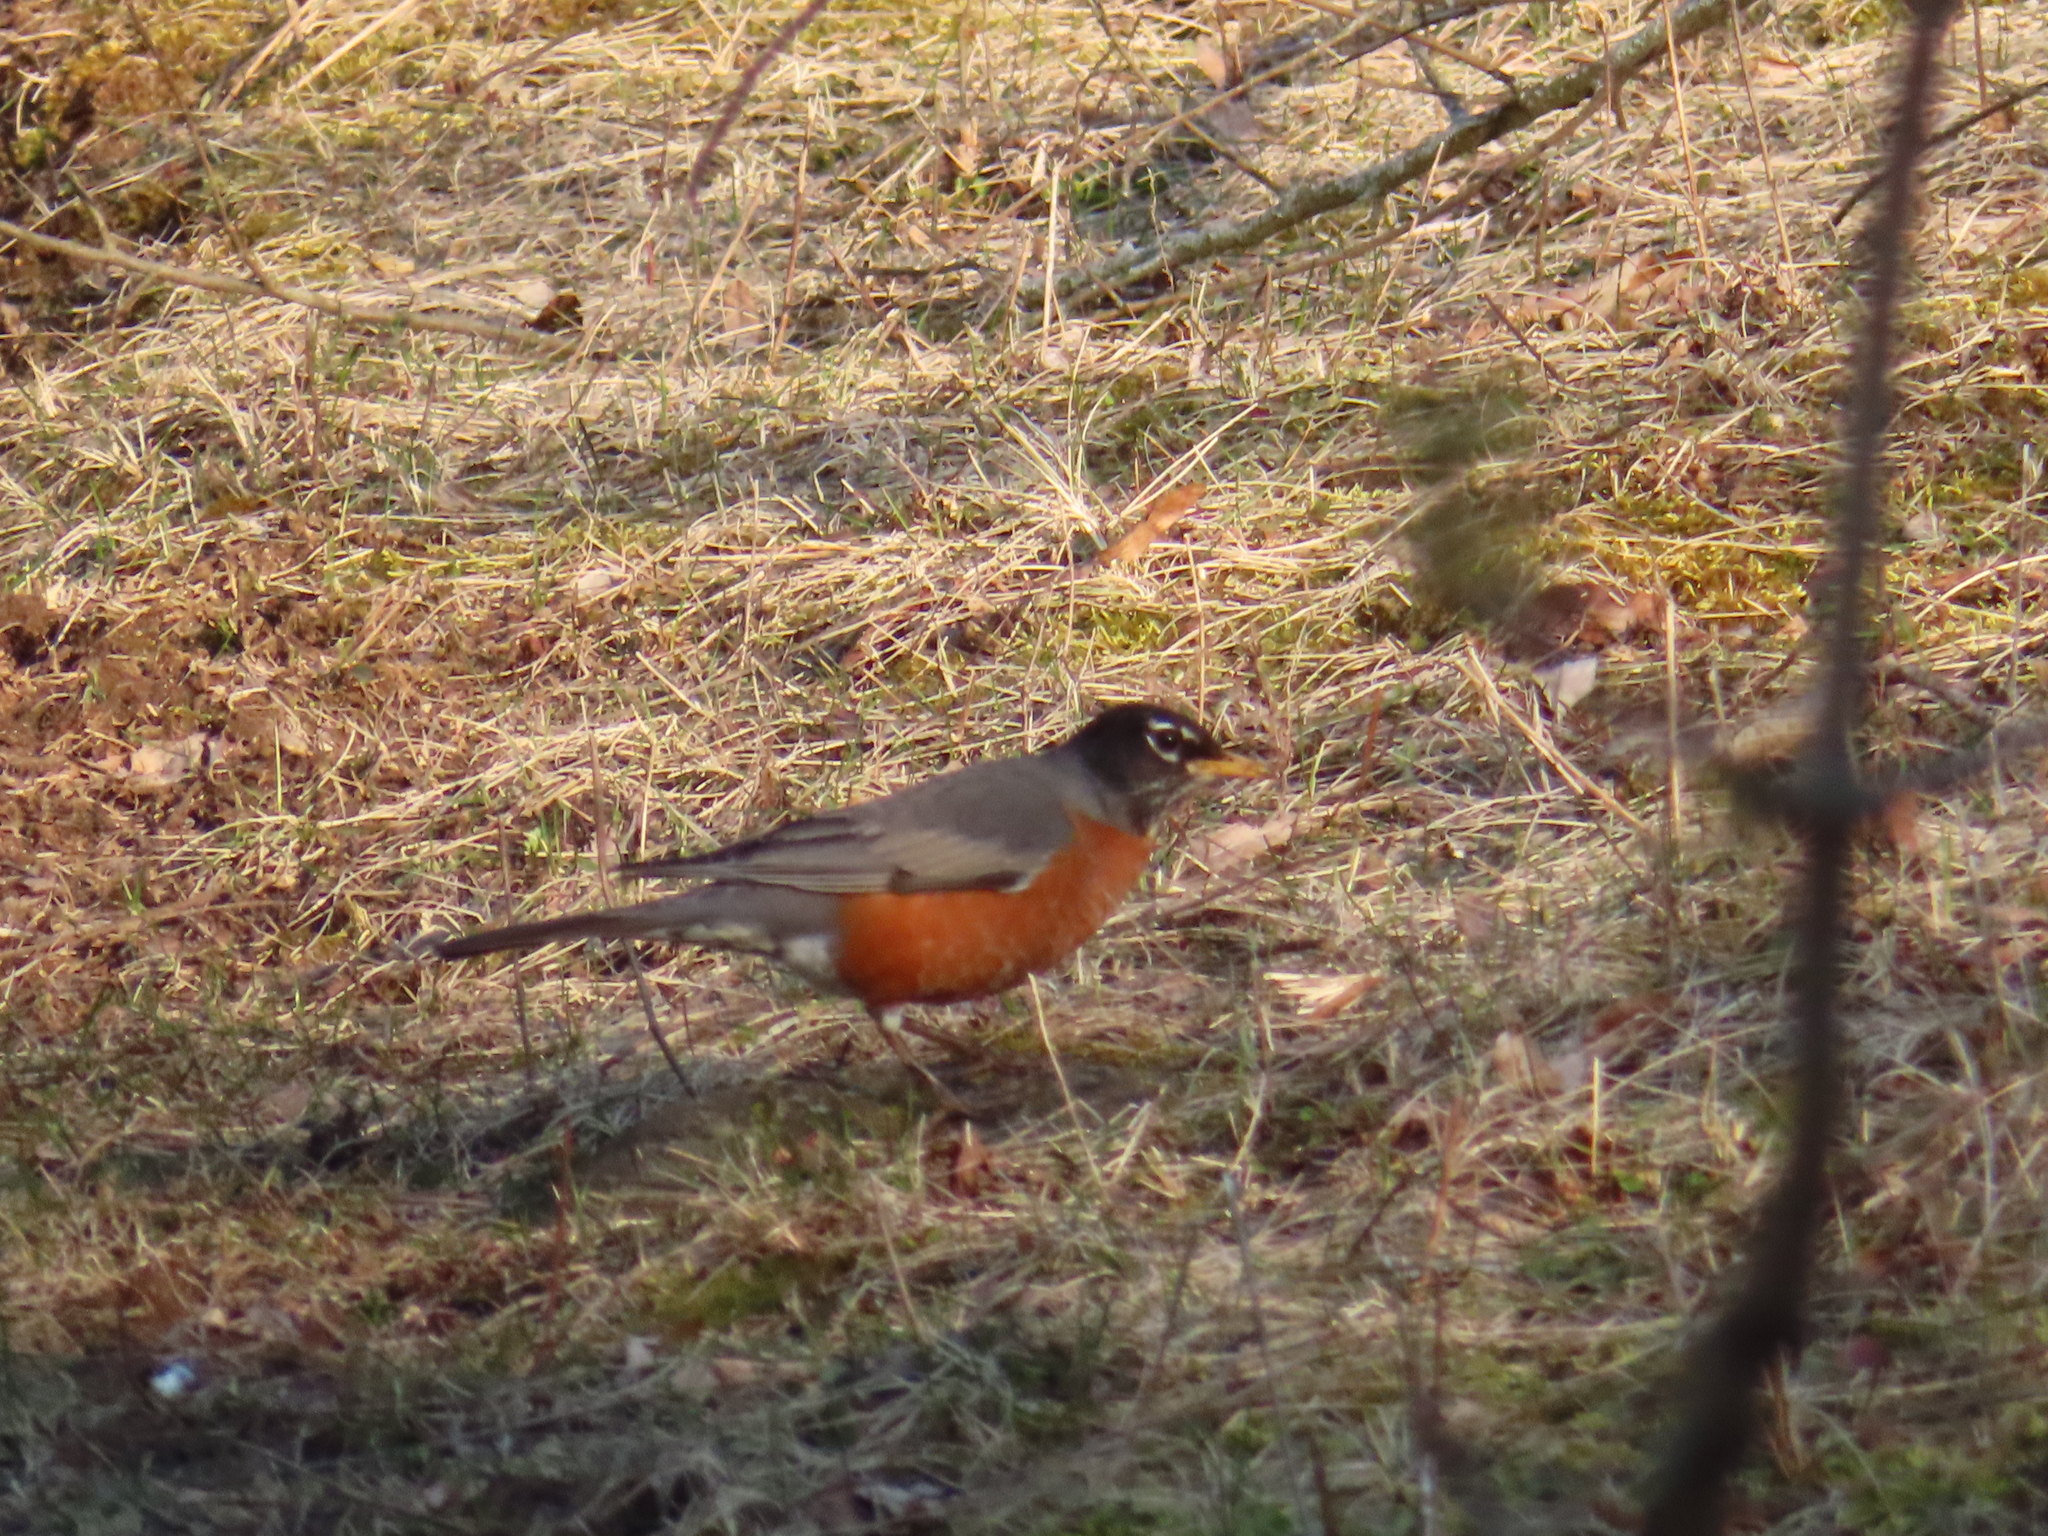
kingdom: Animalia
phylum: Chordata
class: Aves
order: Passeriformes
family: Turdidae
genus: Turdus
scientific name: Turdus migratorius
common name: American robin
